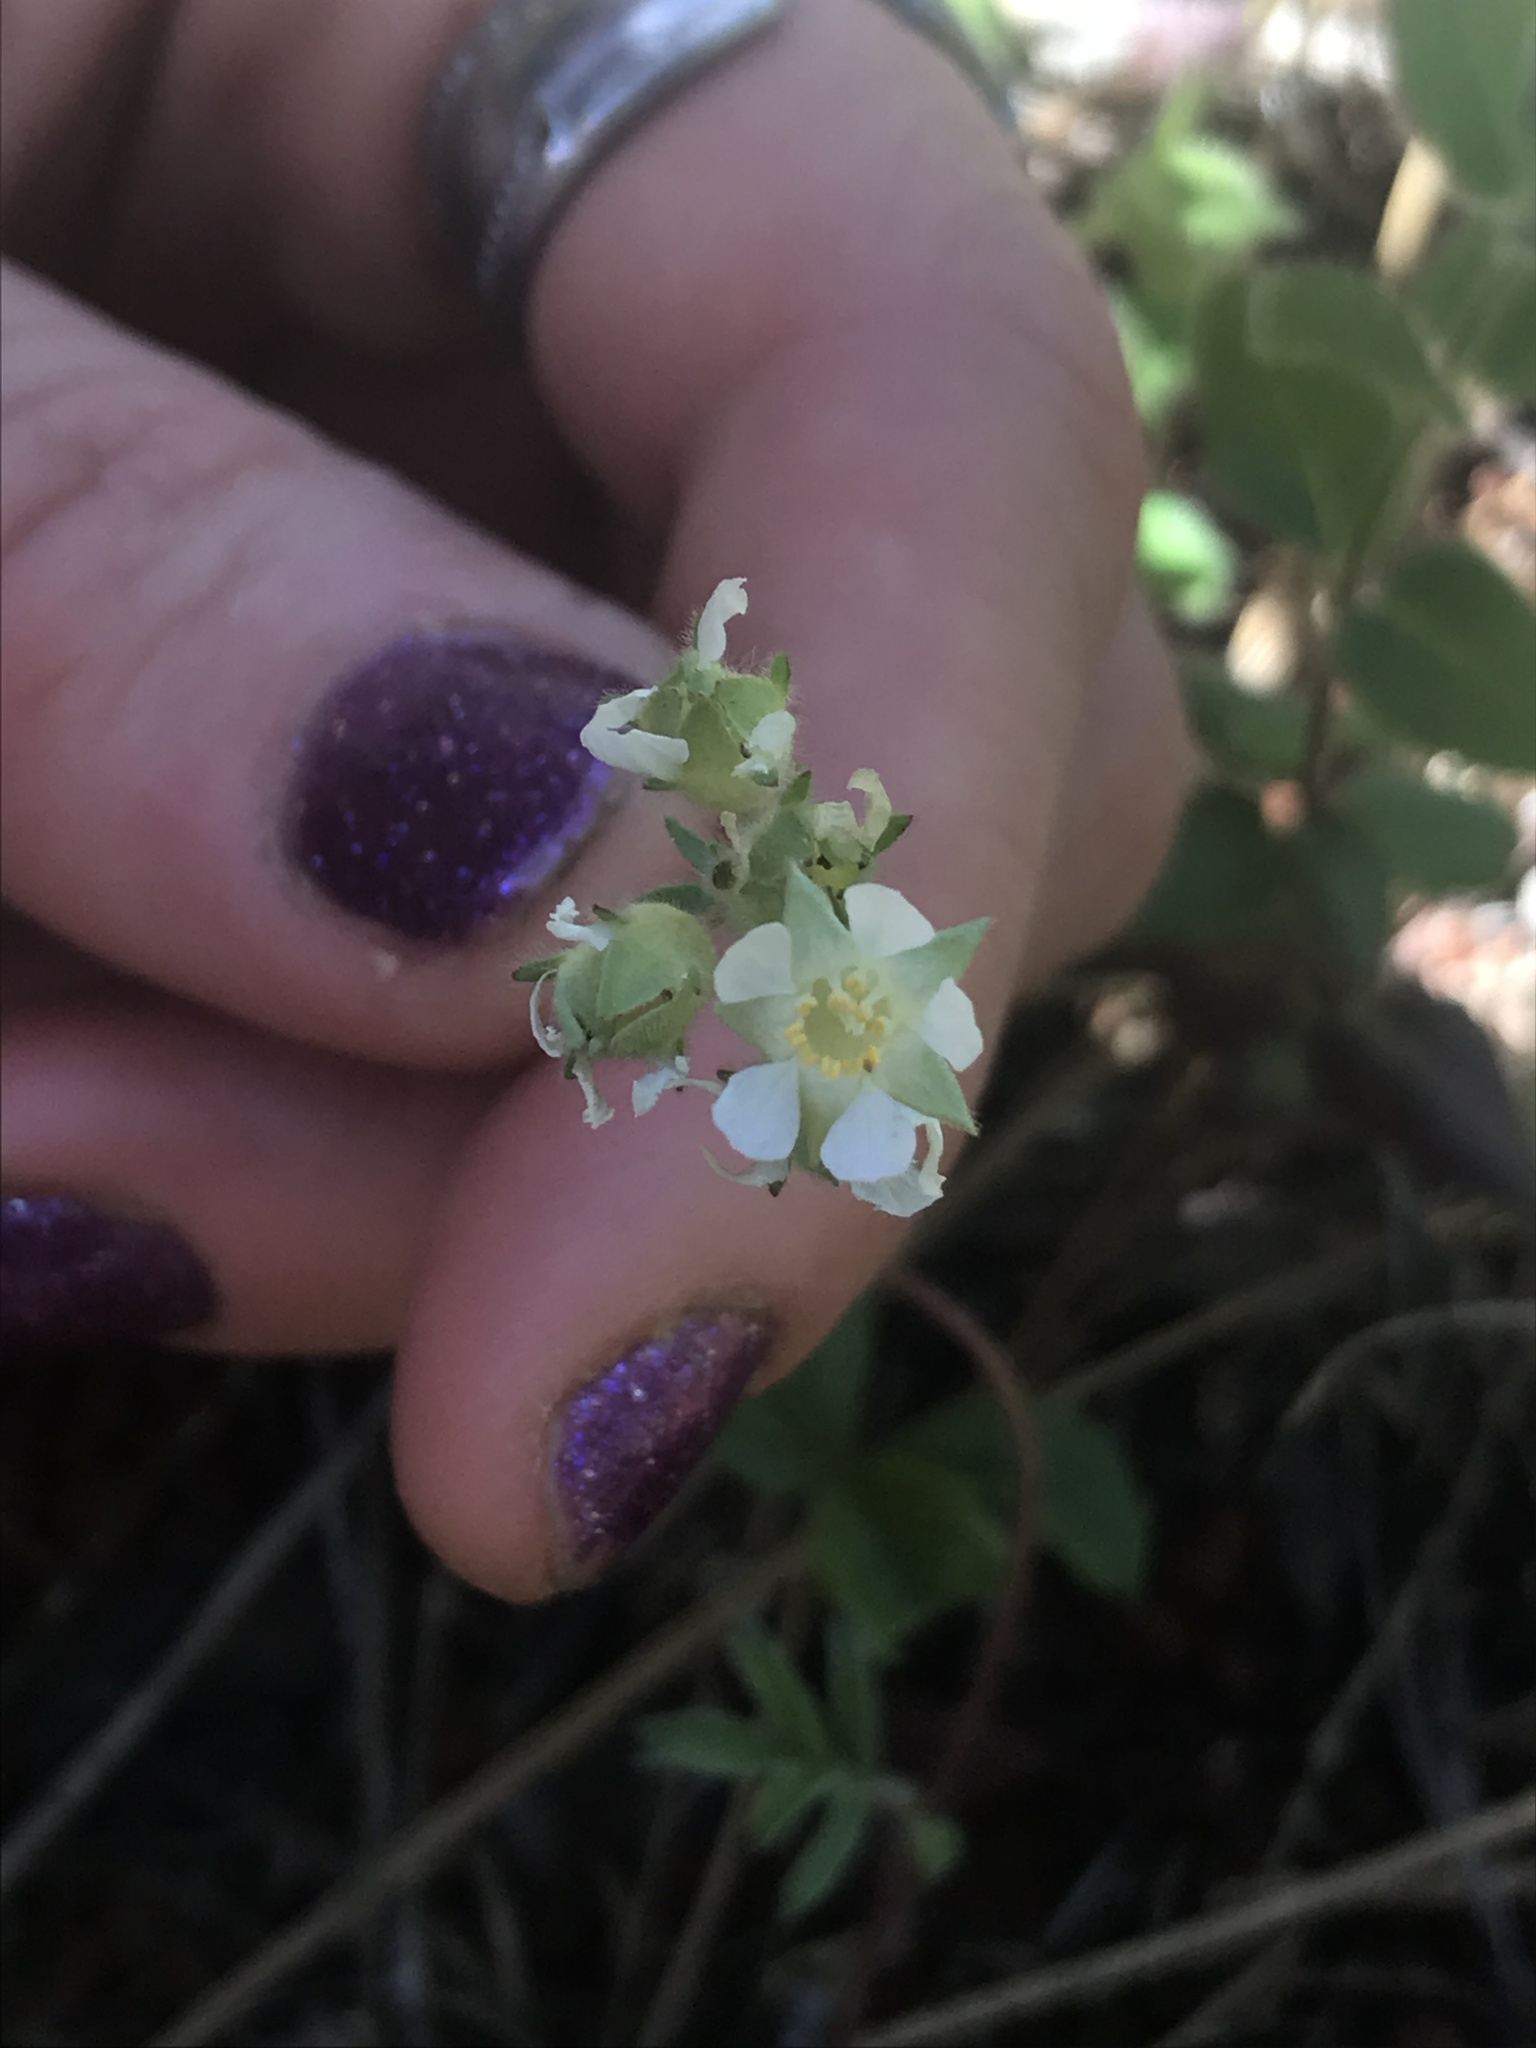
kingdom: Plantae
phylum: Tracheophyta
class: Magnoliopsida
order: Rosales
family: Rosaceae
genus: Potentilla
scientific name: Potentilla congesta
